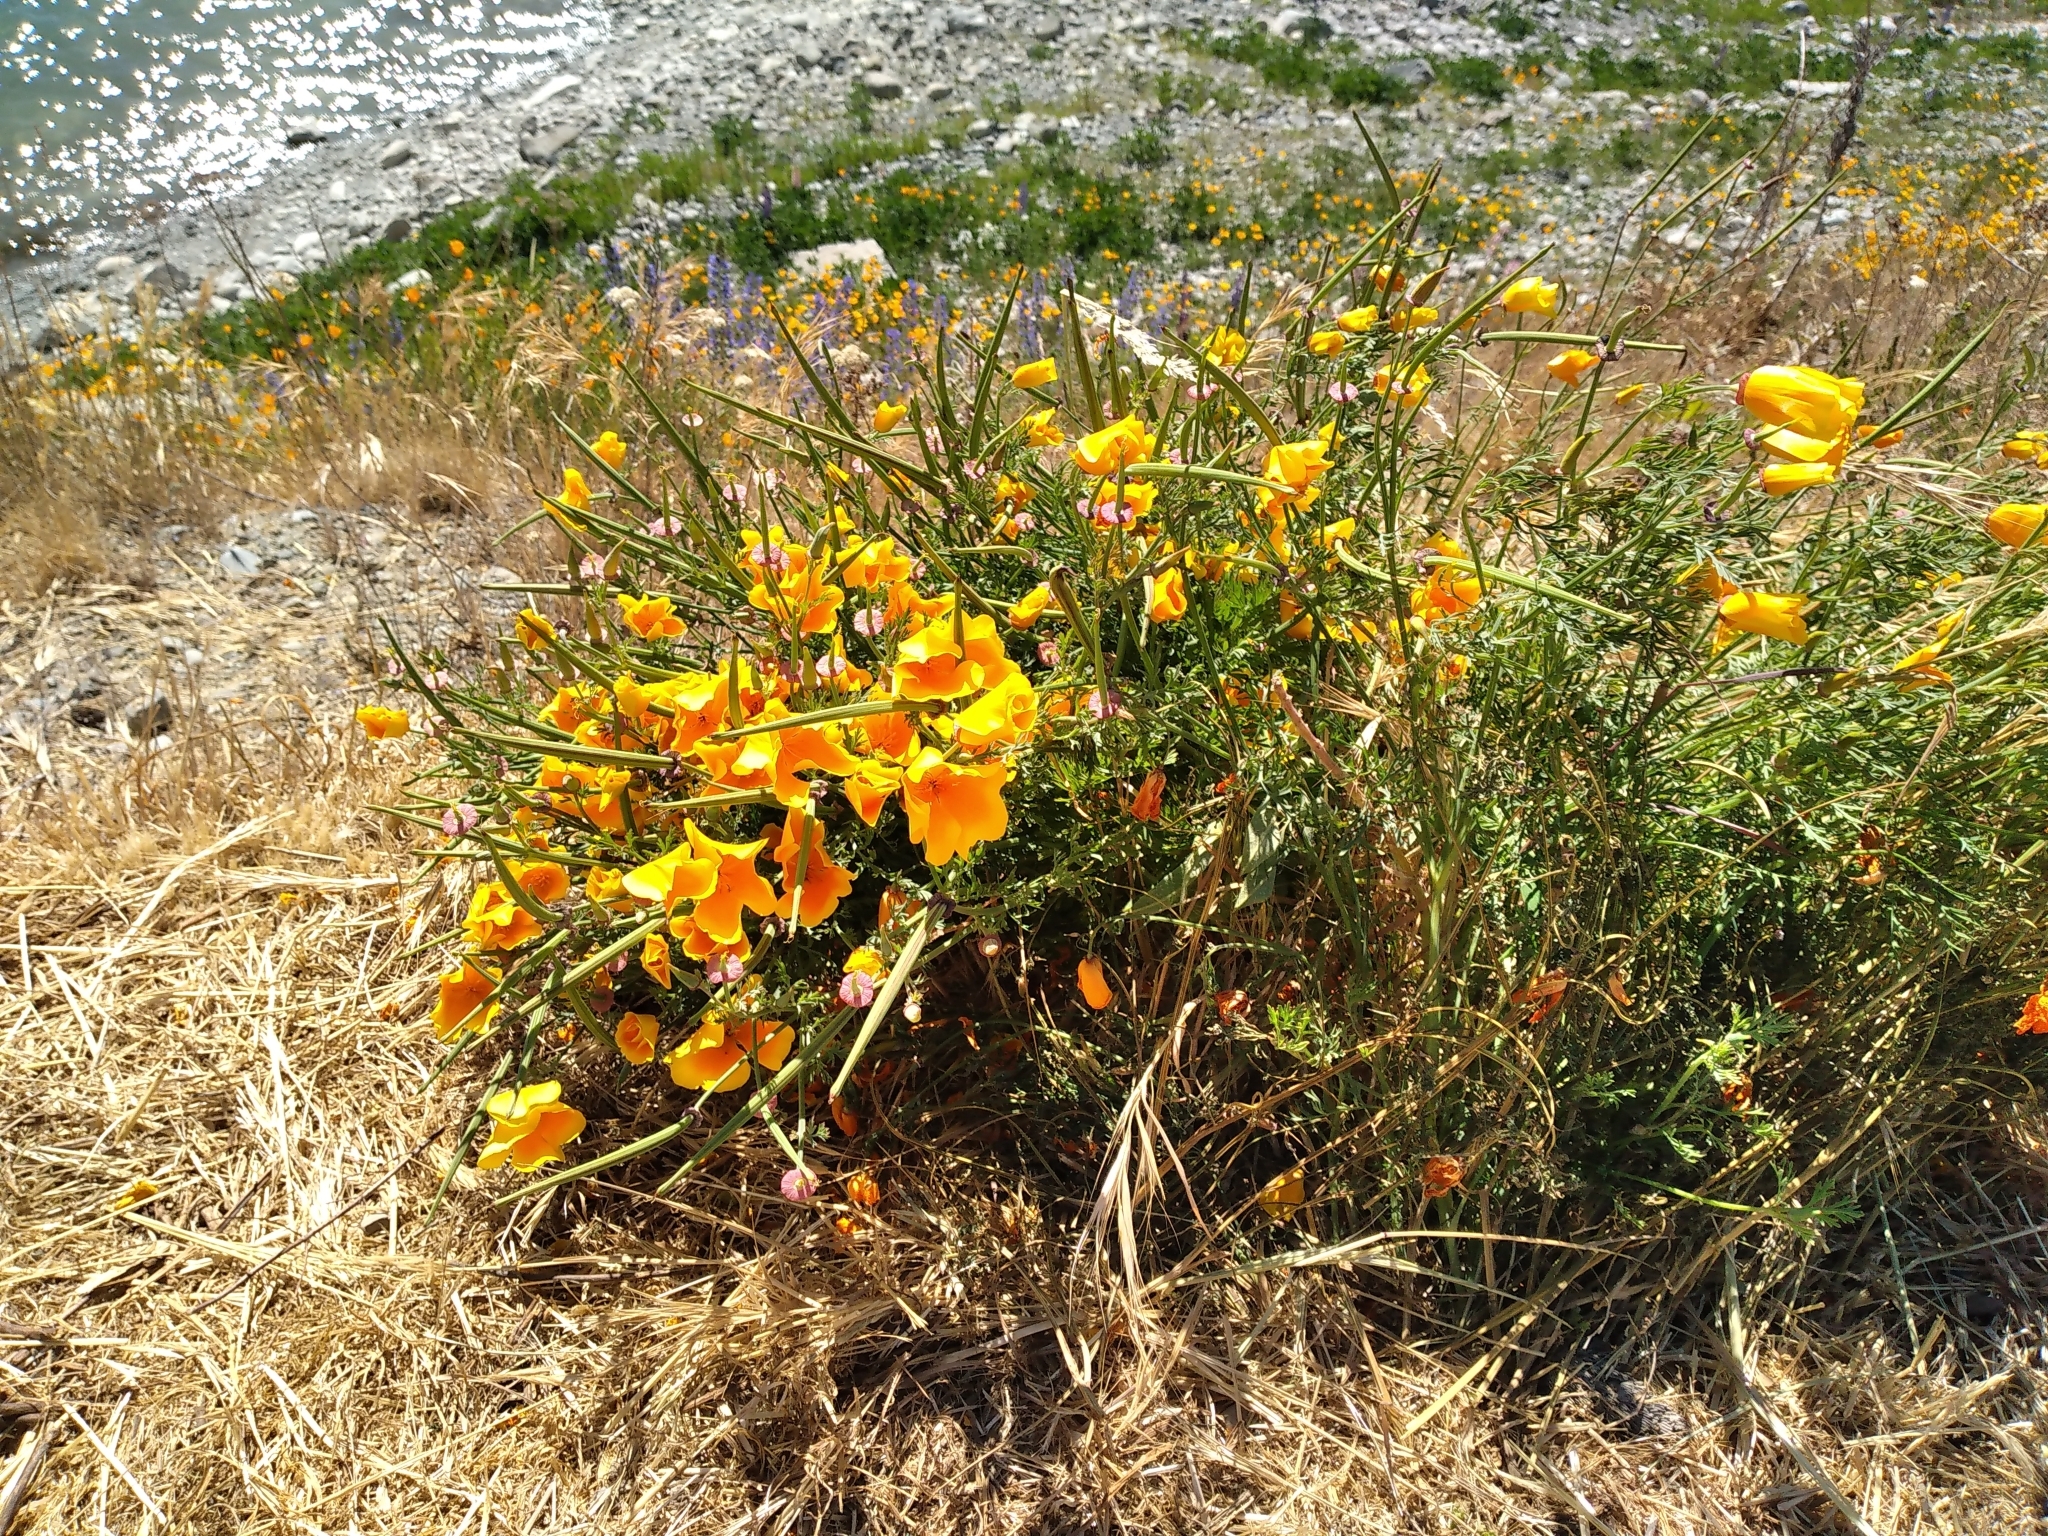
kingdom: Plantae
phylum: Tracheophyta
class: Magnoliopsida
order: Ranunculales
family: Papaveraceae
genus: Eschscholzia
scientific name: Eschscholzia californica
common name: California poppy
